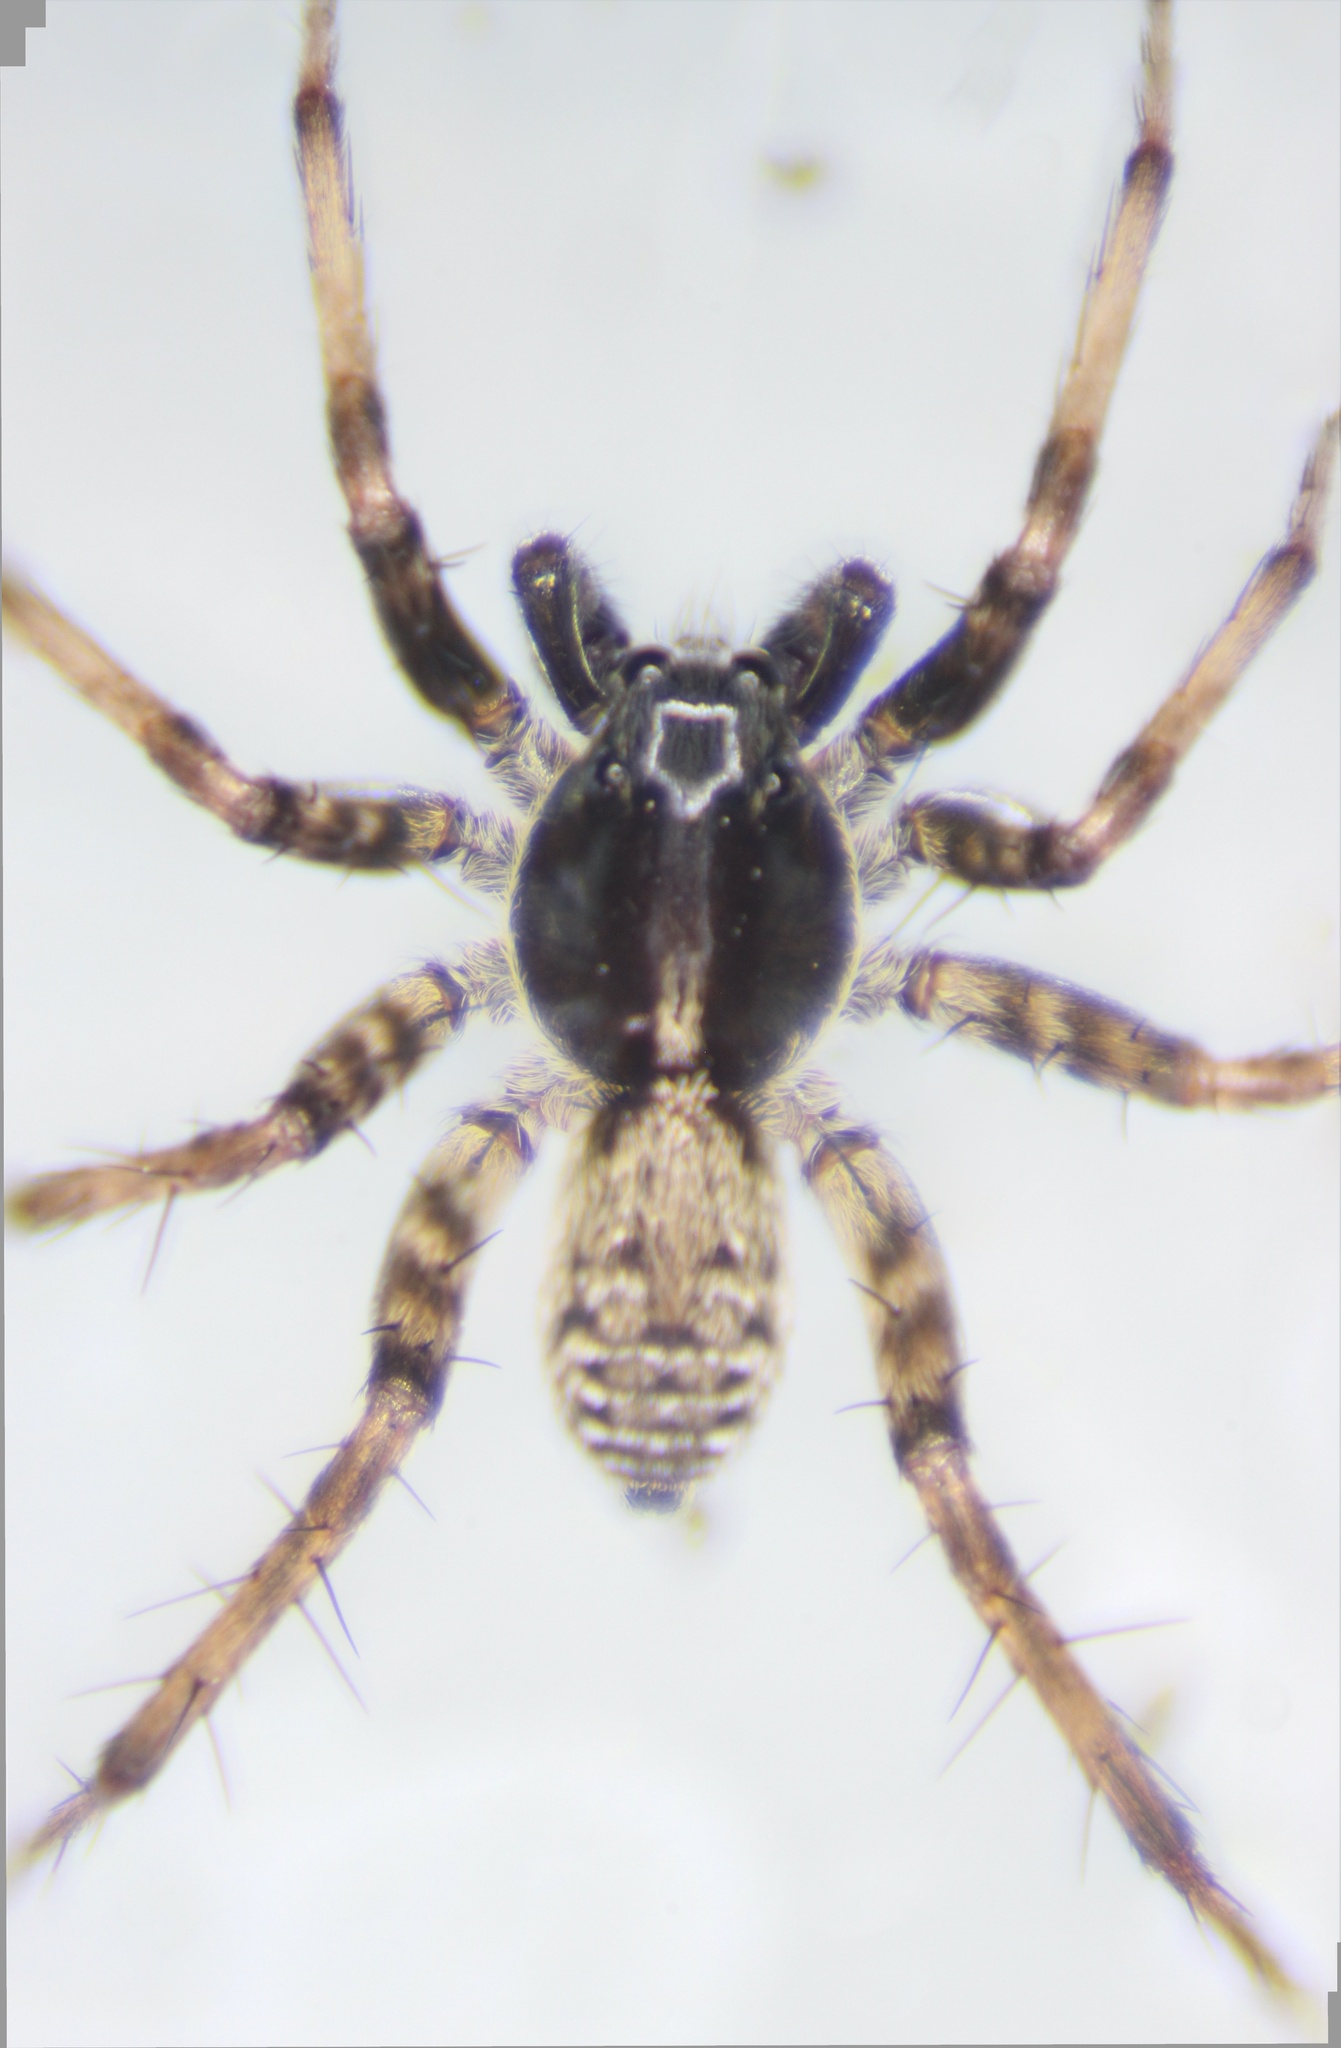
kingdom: Animalia
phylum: Arthropoda
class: Arachnida
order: Araneae
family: Lycosidae
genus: Pardosa
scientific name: Pardosa moesta
